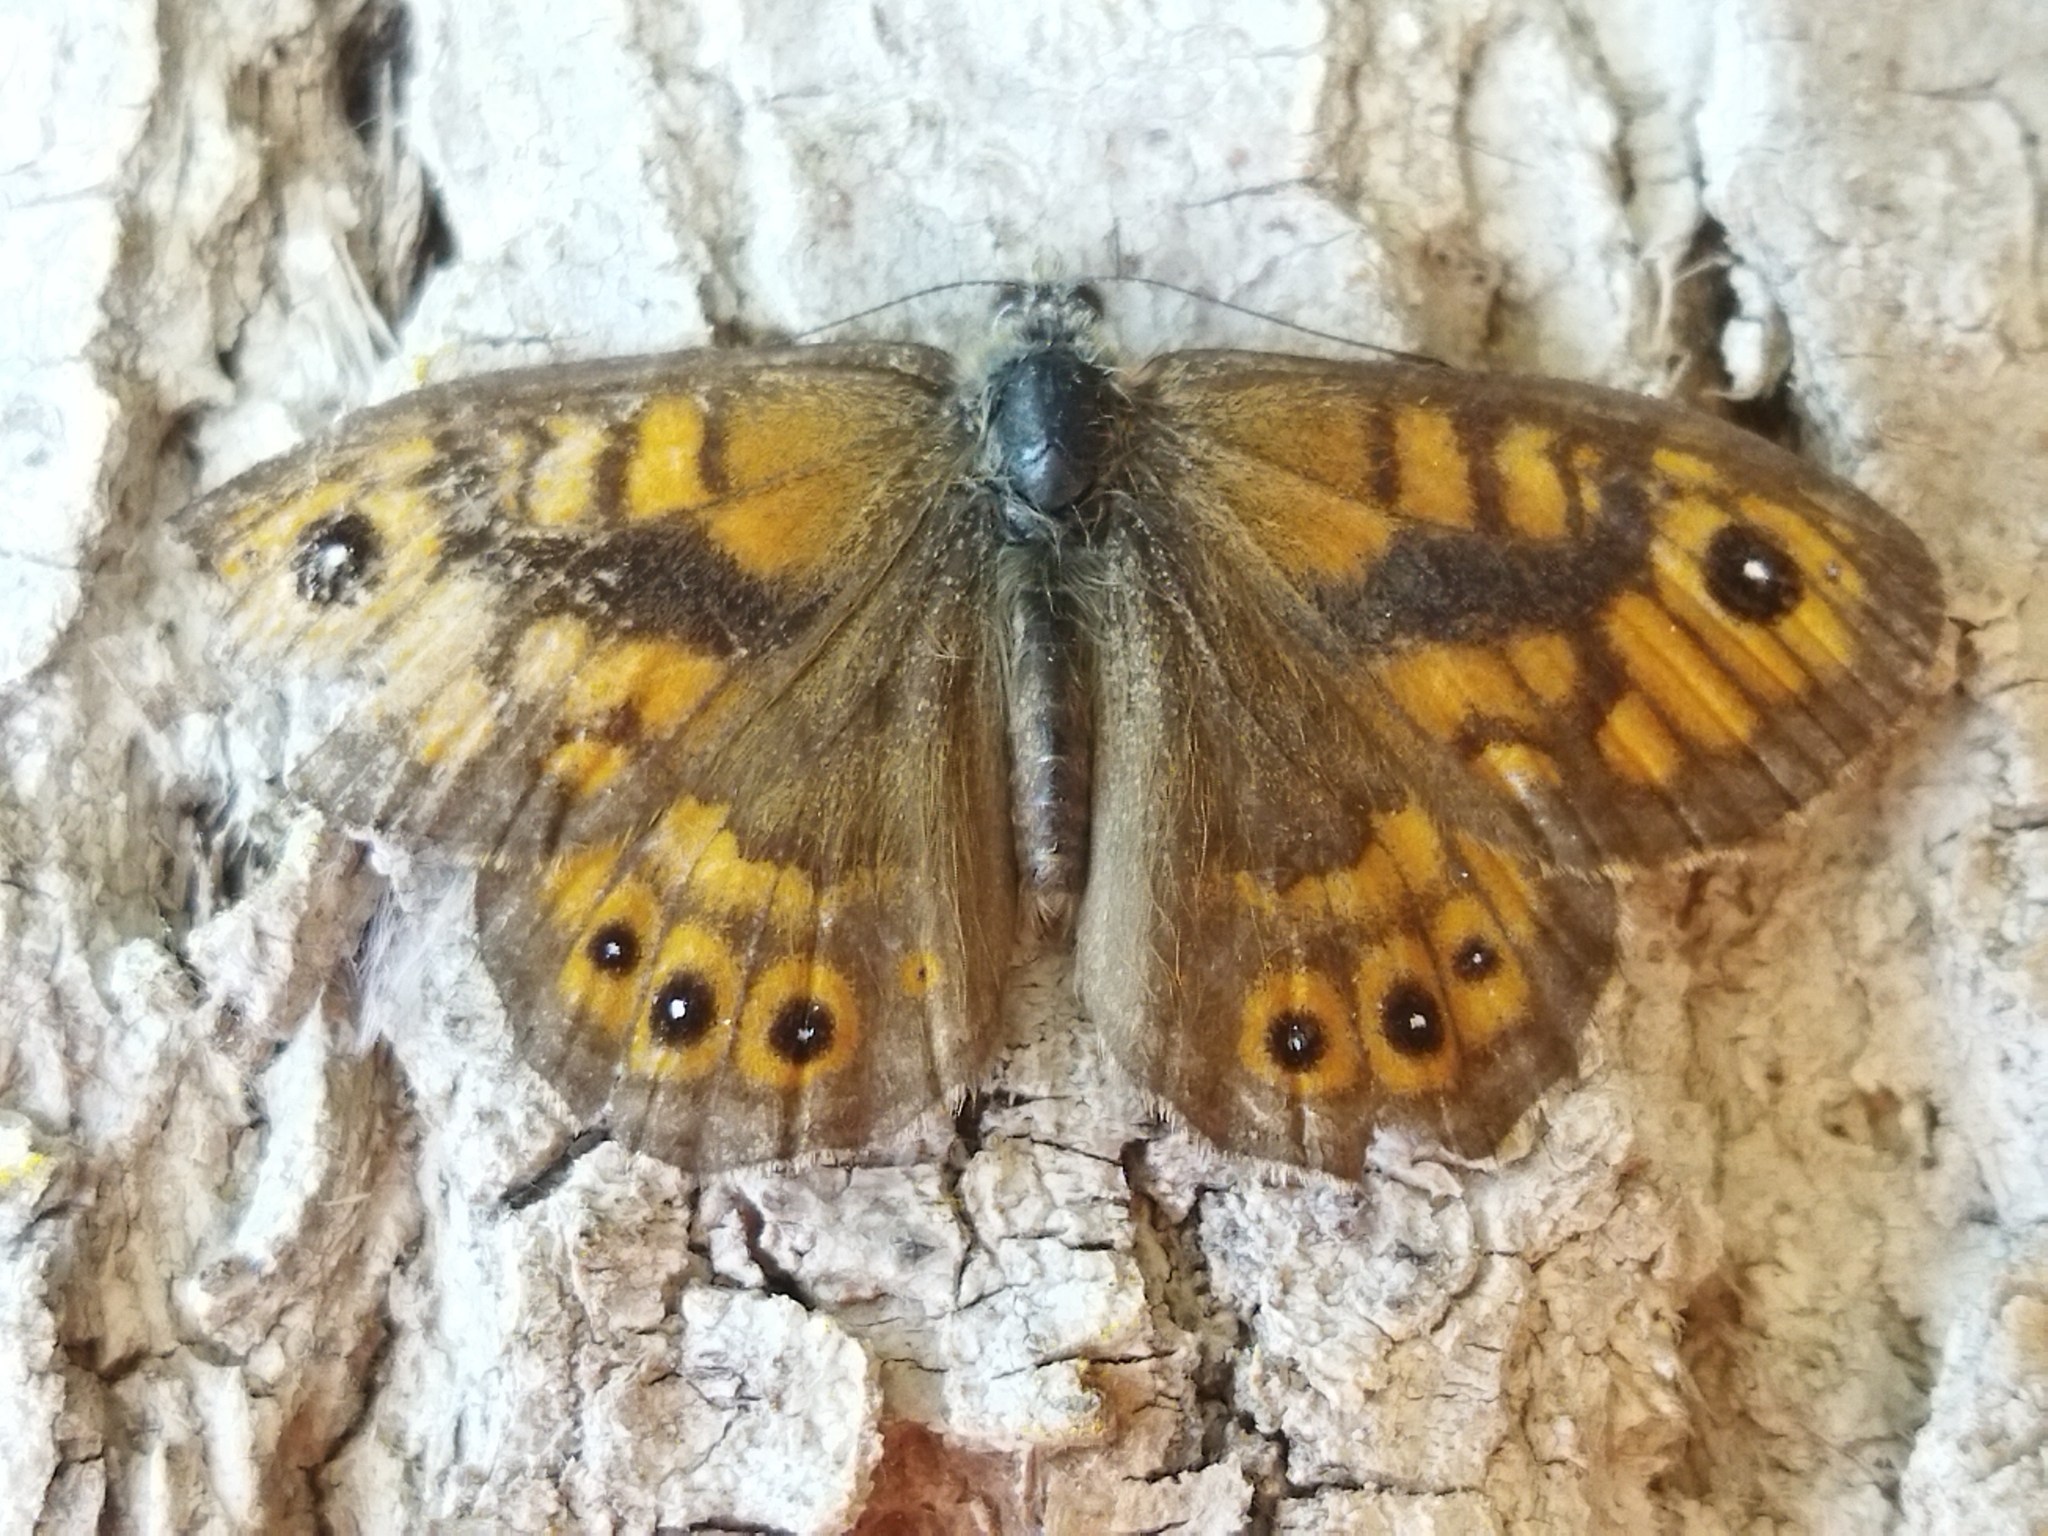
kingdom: Animalia
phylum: Arthropoda
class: Insecta
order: Lepidoptera
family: Nymphalidae
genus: Pararge
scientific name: Pararge Lasiommata megera
